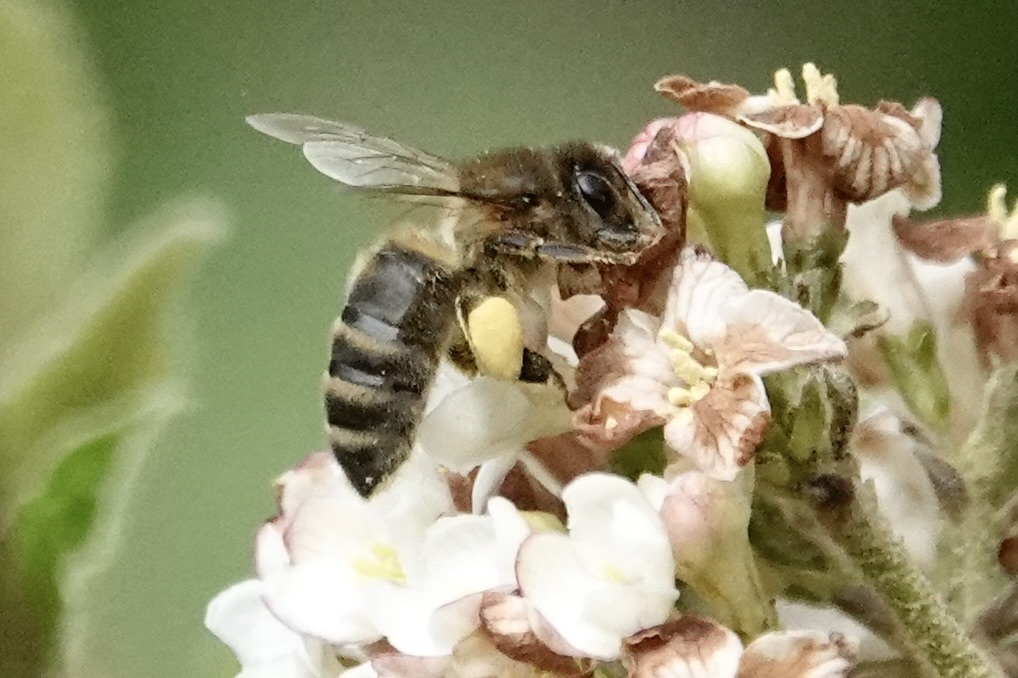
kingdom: Animalia
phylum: Arthropoda
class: Insecta
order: Hymenoptera
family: Apidae
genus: Apis
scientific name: Apis mellifera
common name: Honey bee
